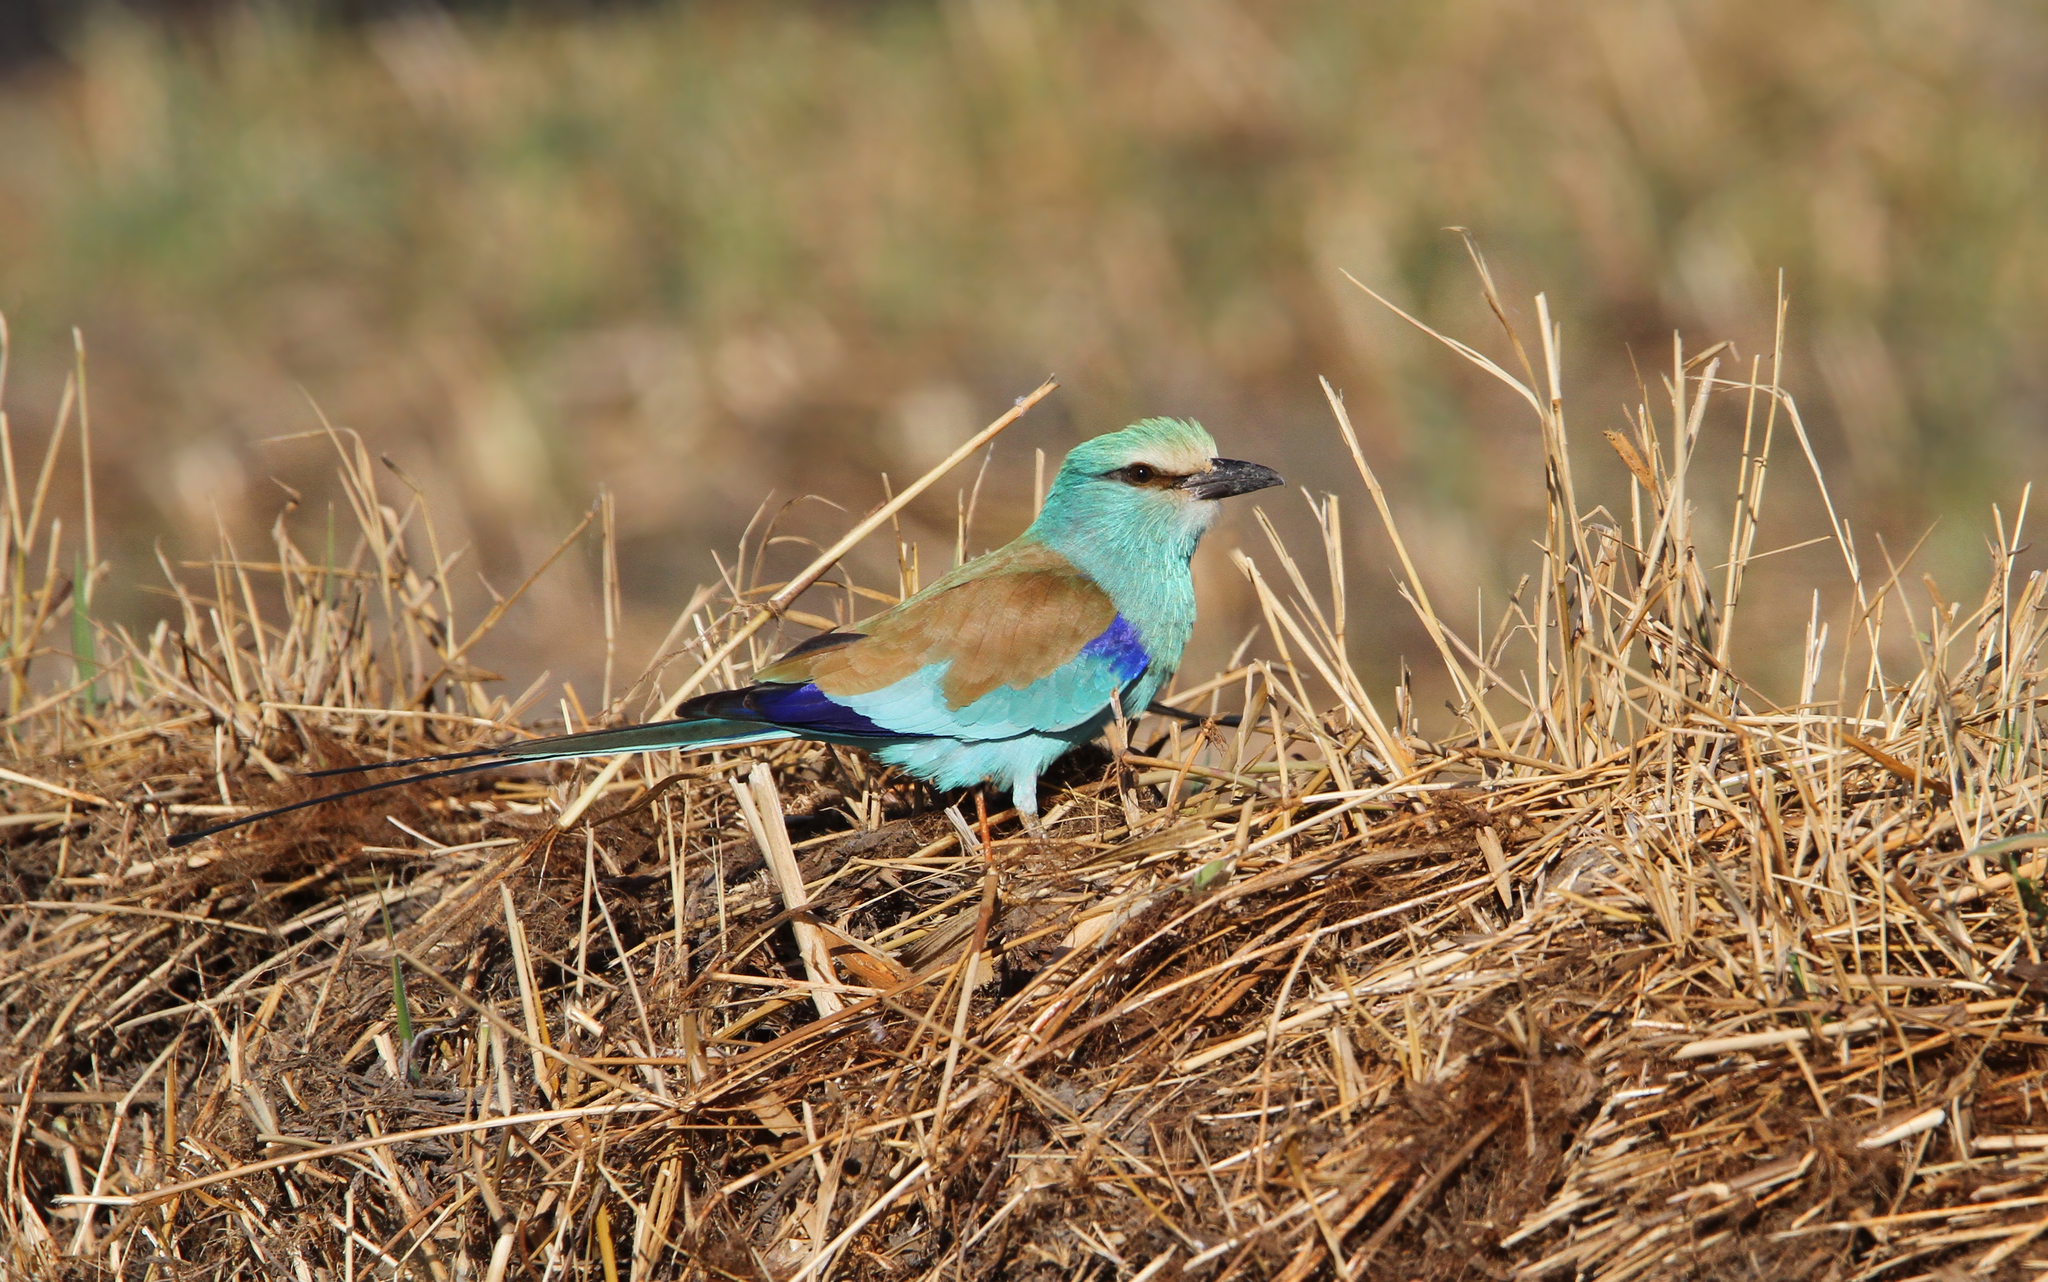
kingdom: Animalia
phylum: Chordata
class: Aves
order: Coraciiformes
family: Coraciidae
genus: Coracias
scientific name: Coracias abyssinicus
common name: Abyssinian roller
